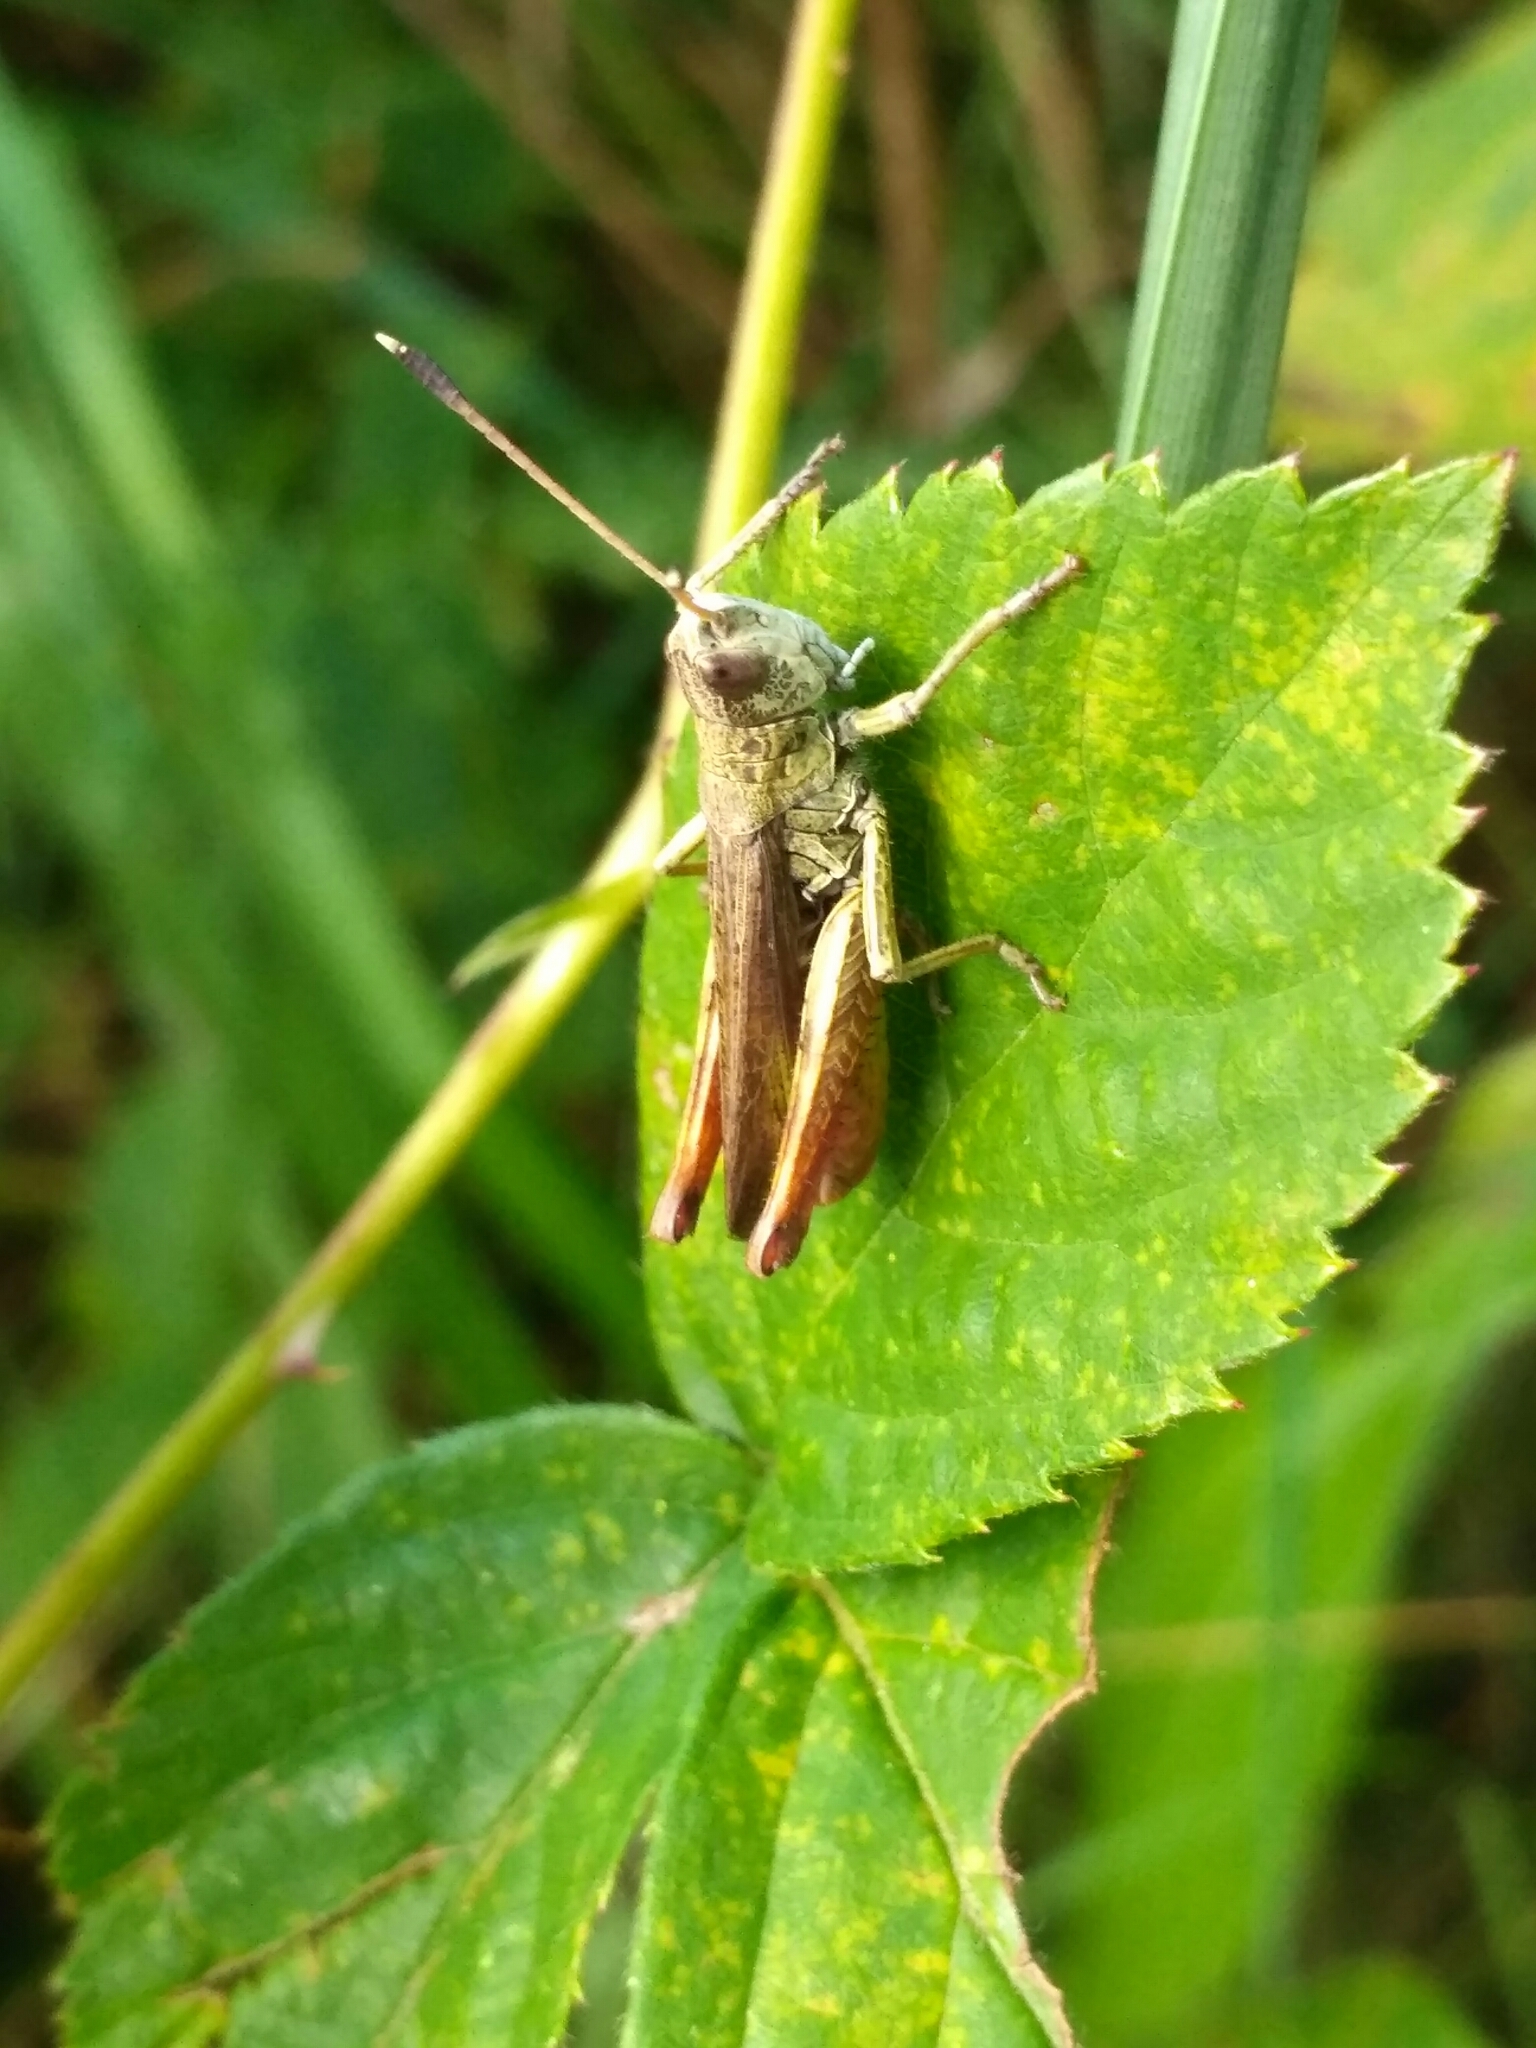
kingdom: Animalia
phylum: Arthropoda
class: Insecta
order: Orthoptera
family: Acrididae
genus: Gomphocerippus
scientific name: Gomphocerippus rufus
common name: Rufous grasshopper
